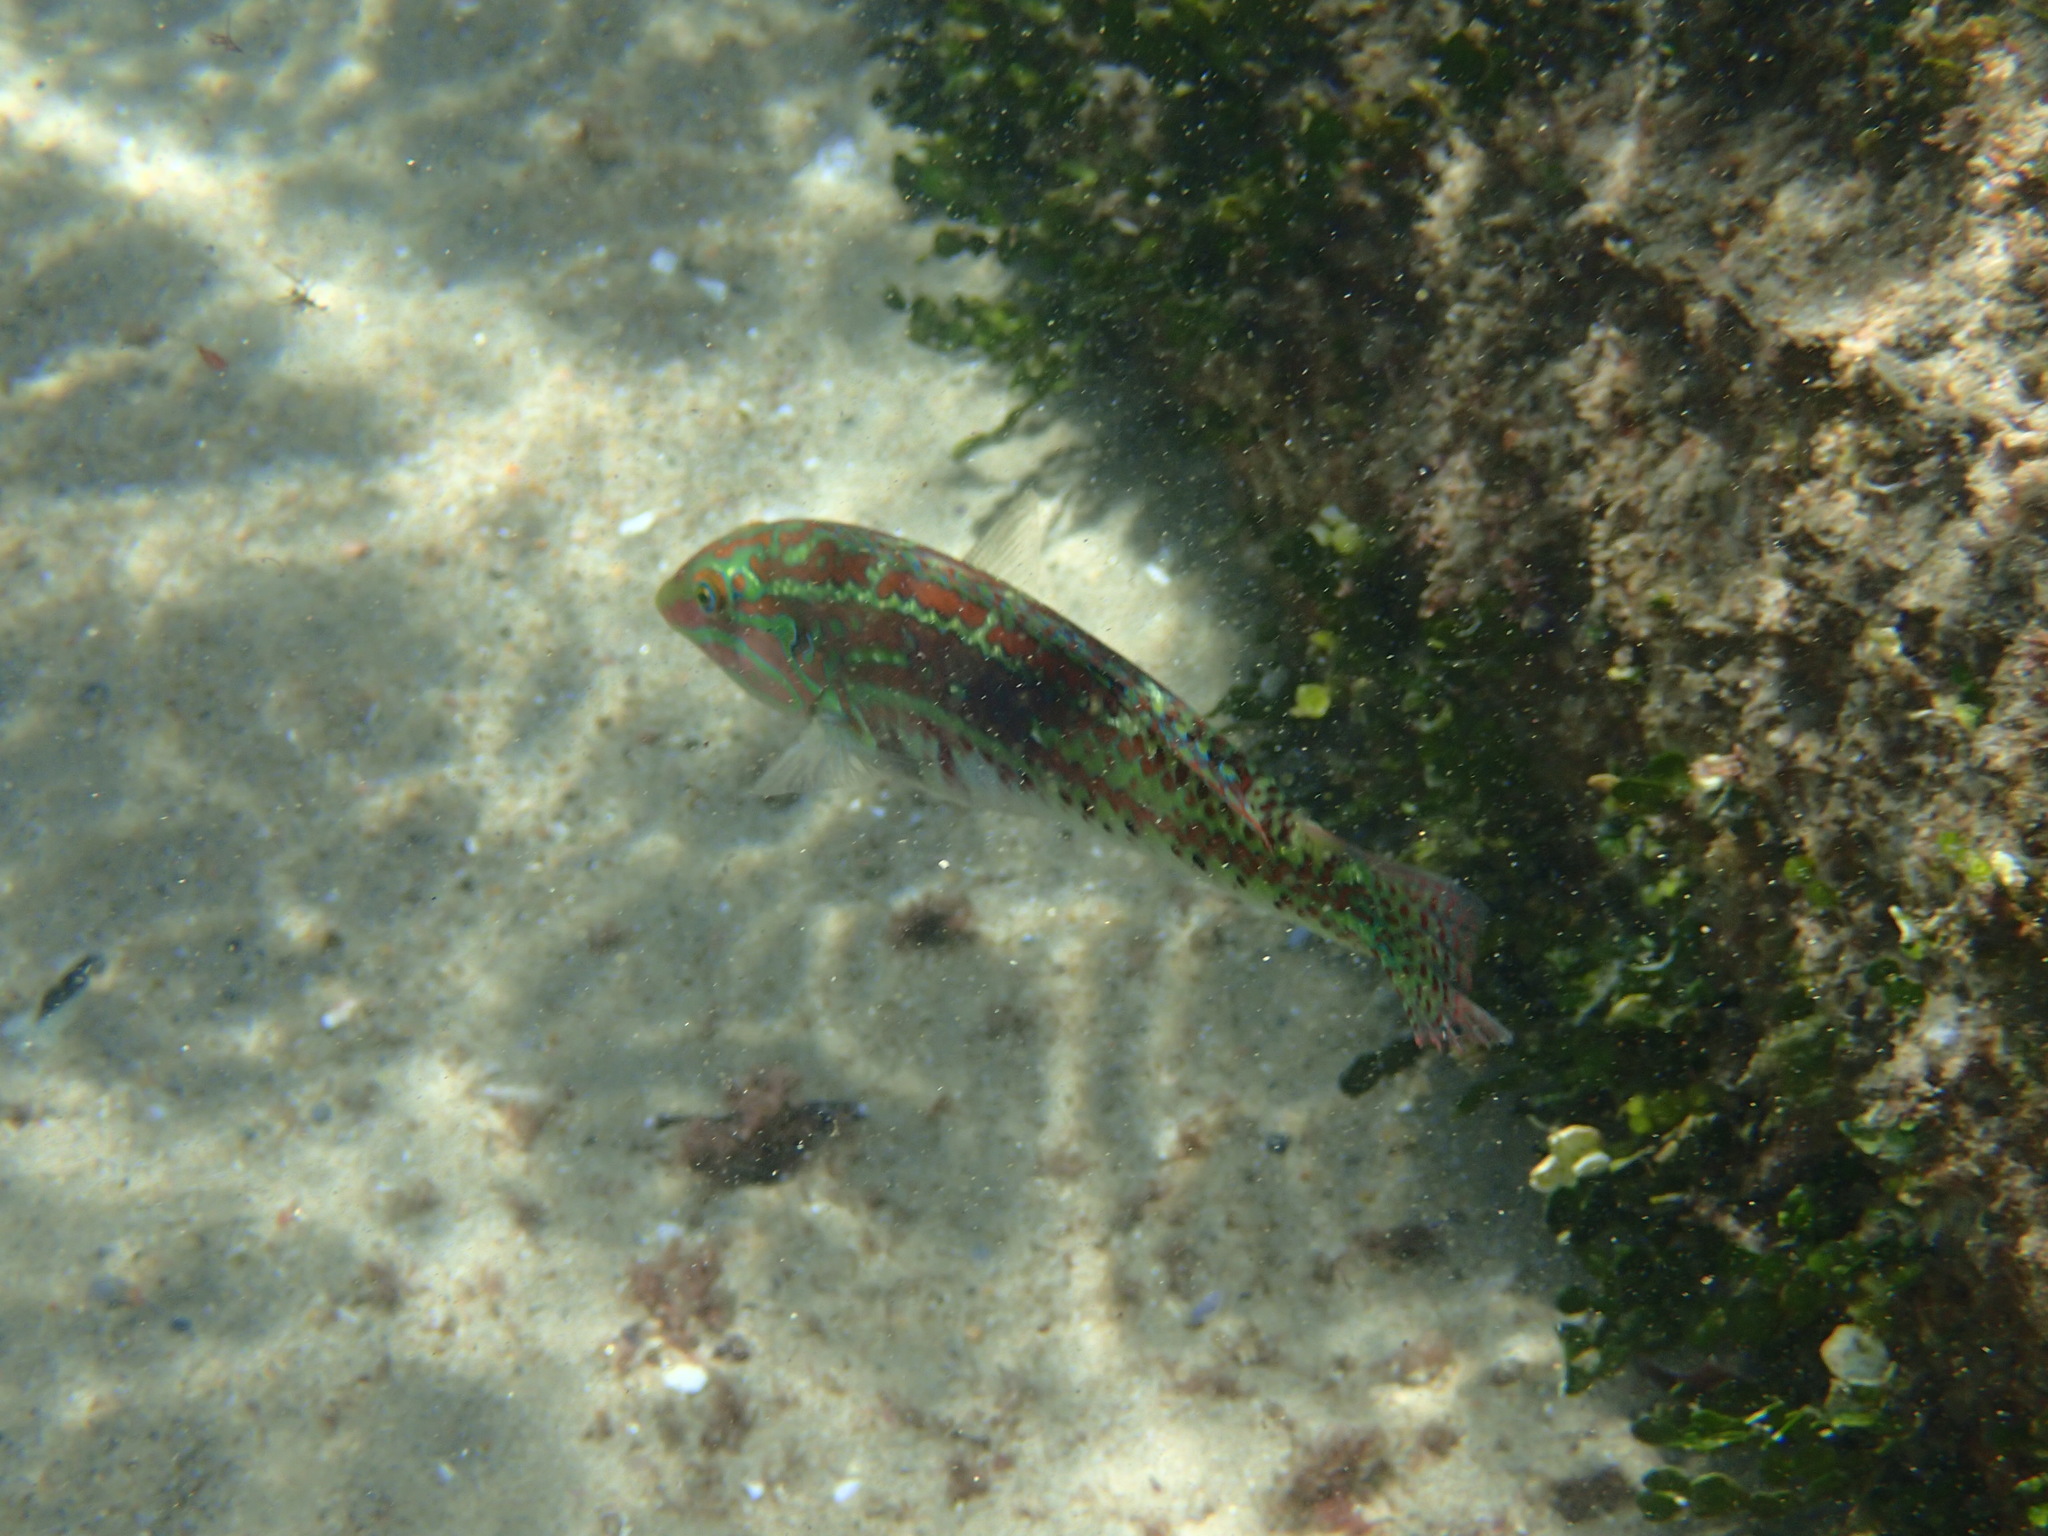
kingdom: Animalia
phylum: Chordata
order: Perciformes
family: Labridae
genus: Halichoeres
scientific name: Halichoeres zulu
